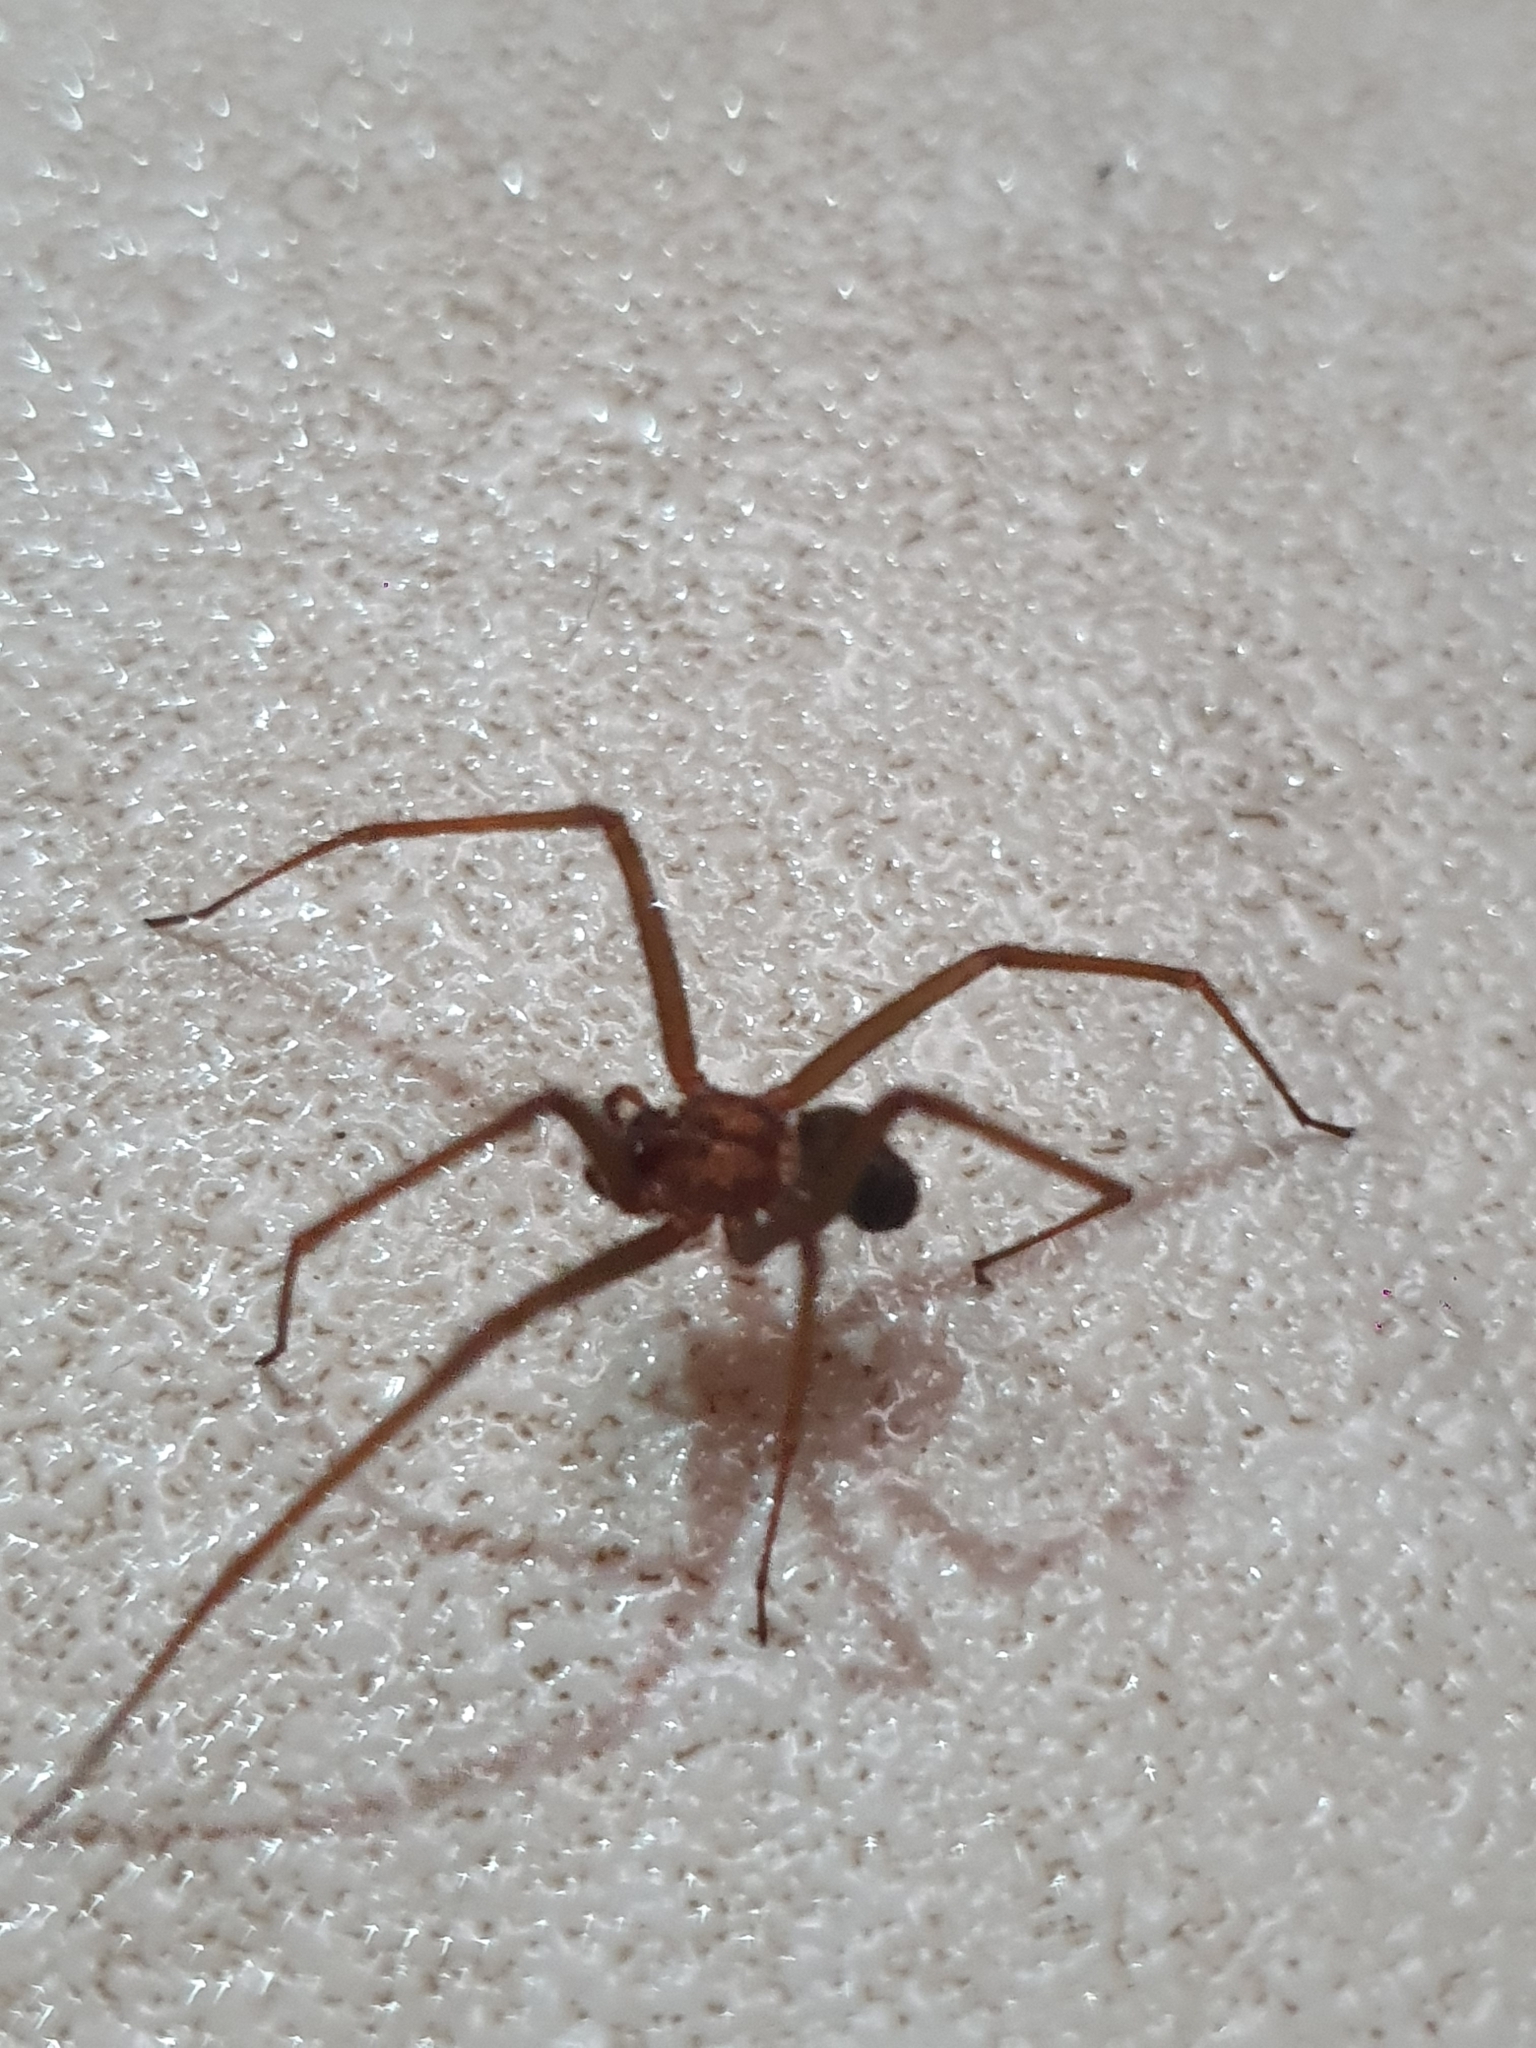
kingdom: Animalia
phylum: Arthropoda
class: Arachnida
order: Araneae
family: Sicariidae
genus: Loxosceles
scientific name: Loxosceles
